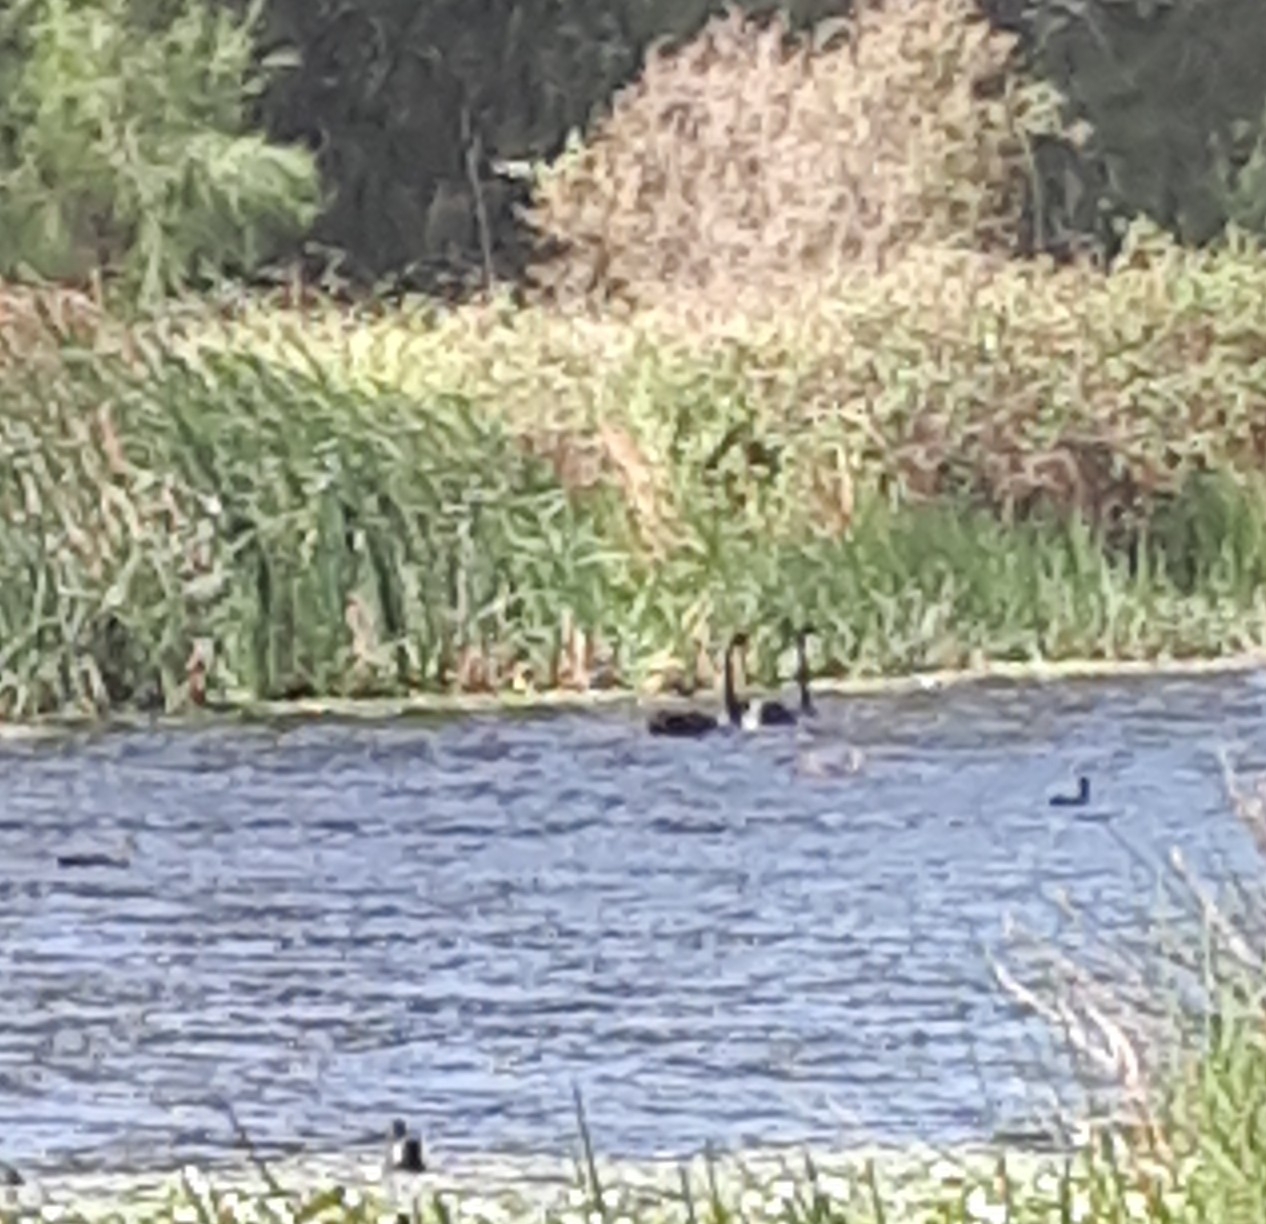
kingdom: Animalia
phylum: Chordata
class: Aves
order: Anseriformes
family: Anatidae
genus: Cygnus
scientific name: Cygnus atratus
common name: Black swan
